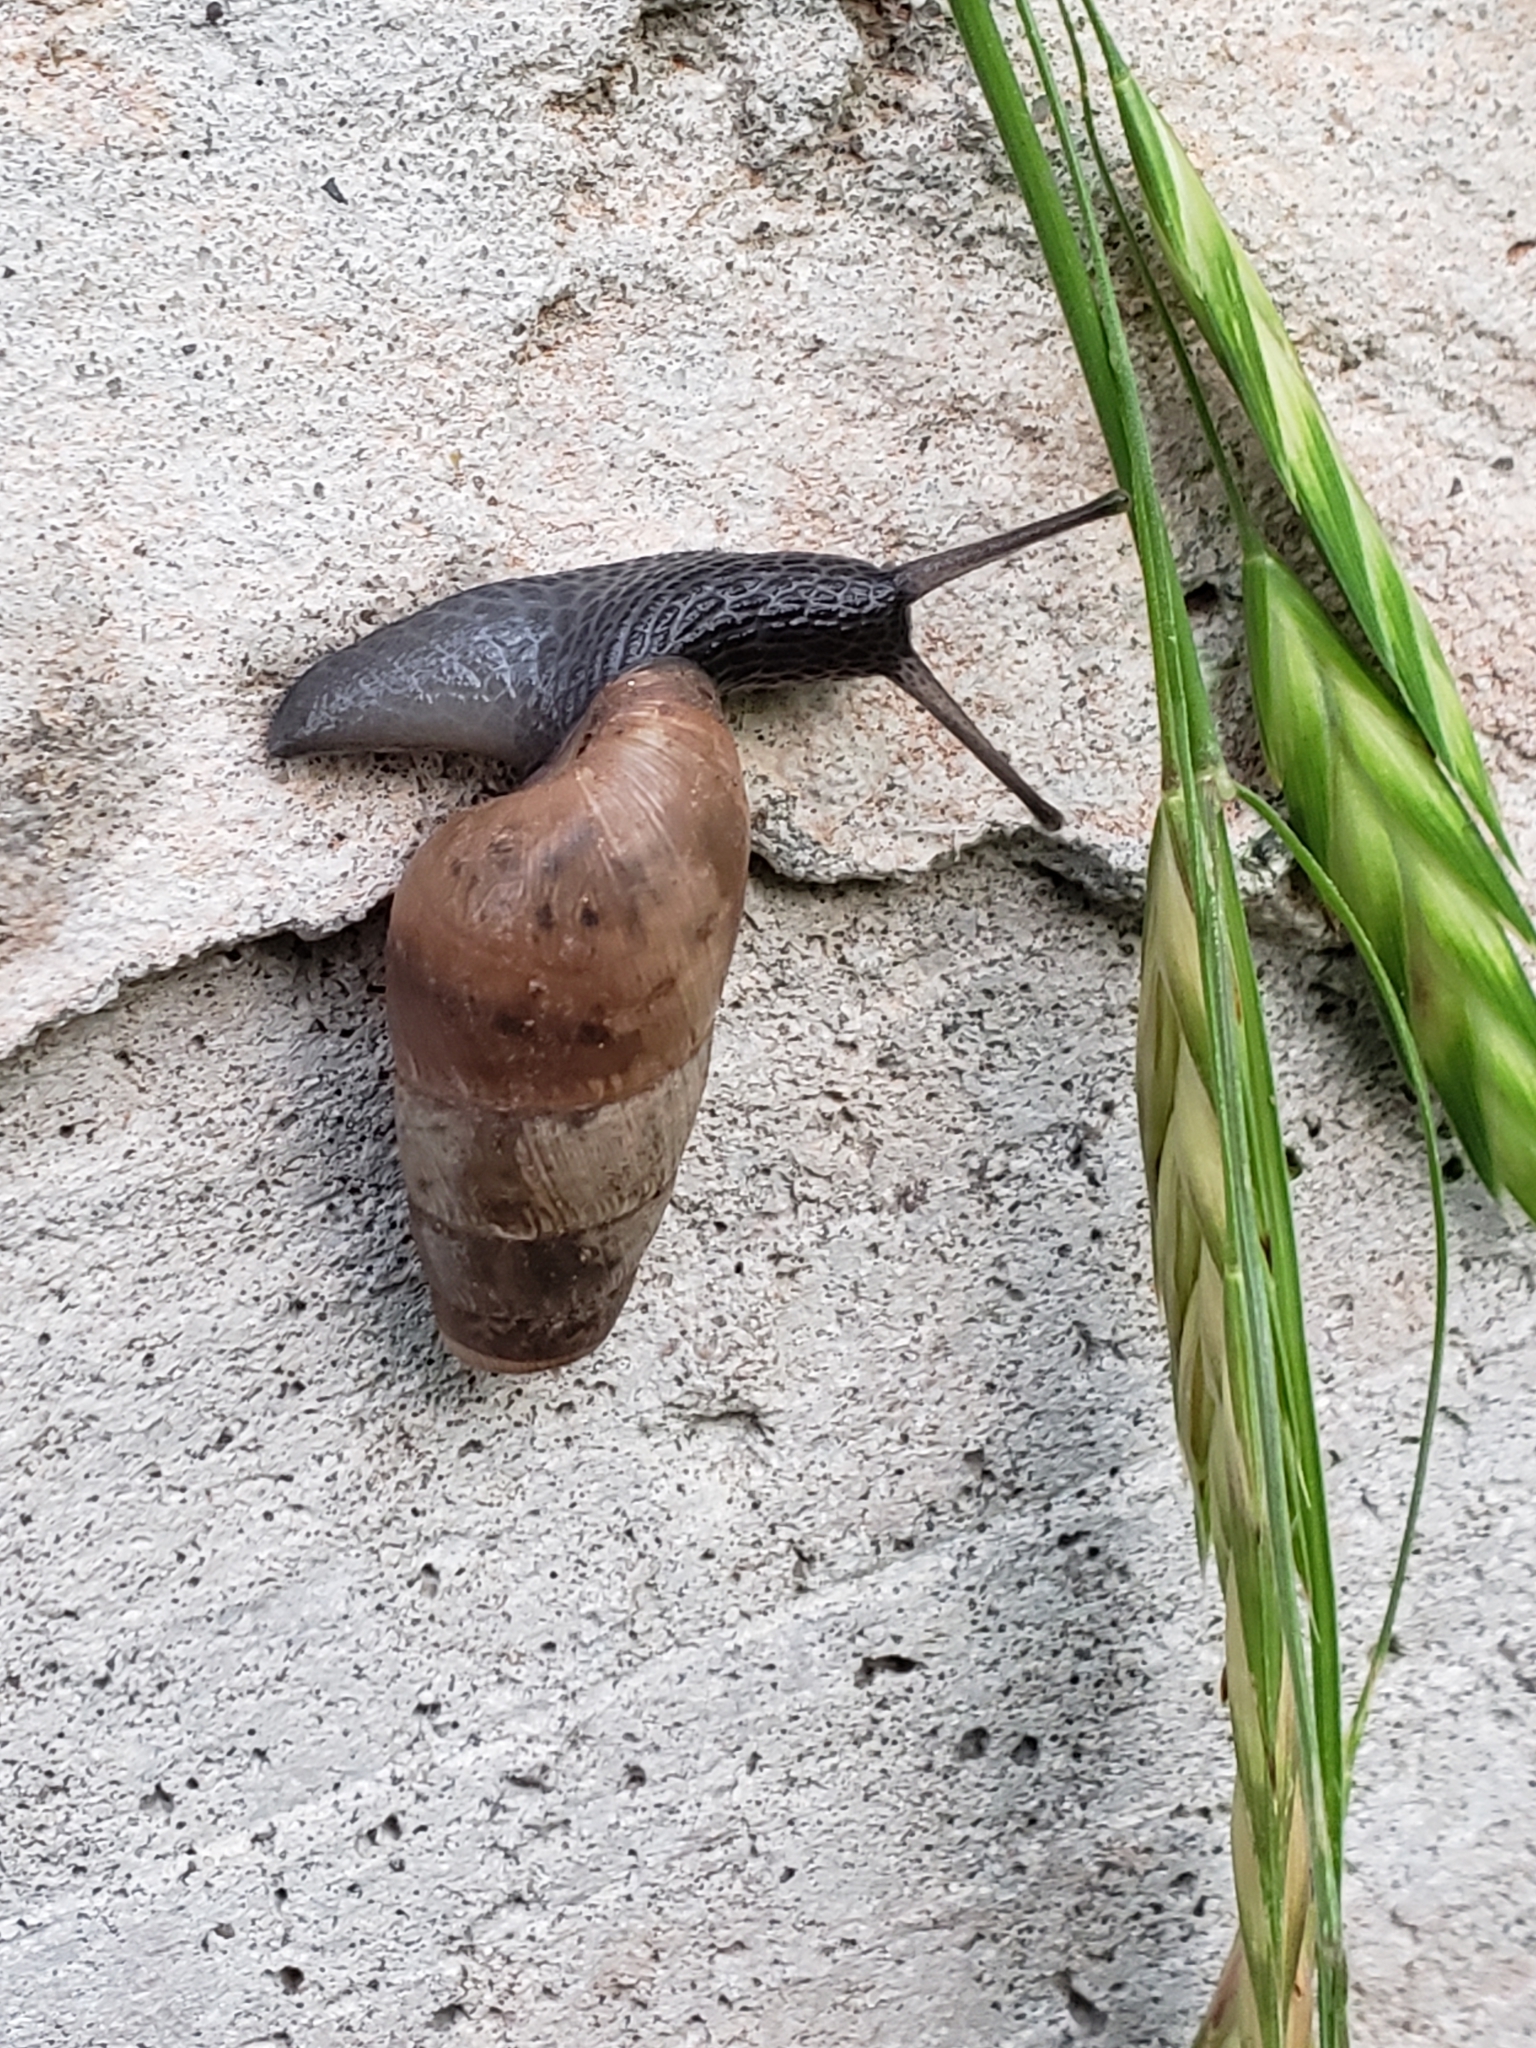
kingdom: Animalia
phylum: Mollusca
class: Gastropoda
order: Stylommatophora
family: Achatinidae
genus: Rumina
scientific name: Rumina decollata
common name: Decollate snail
